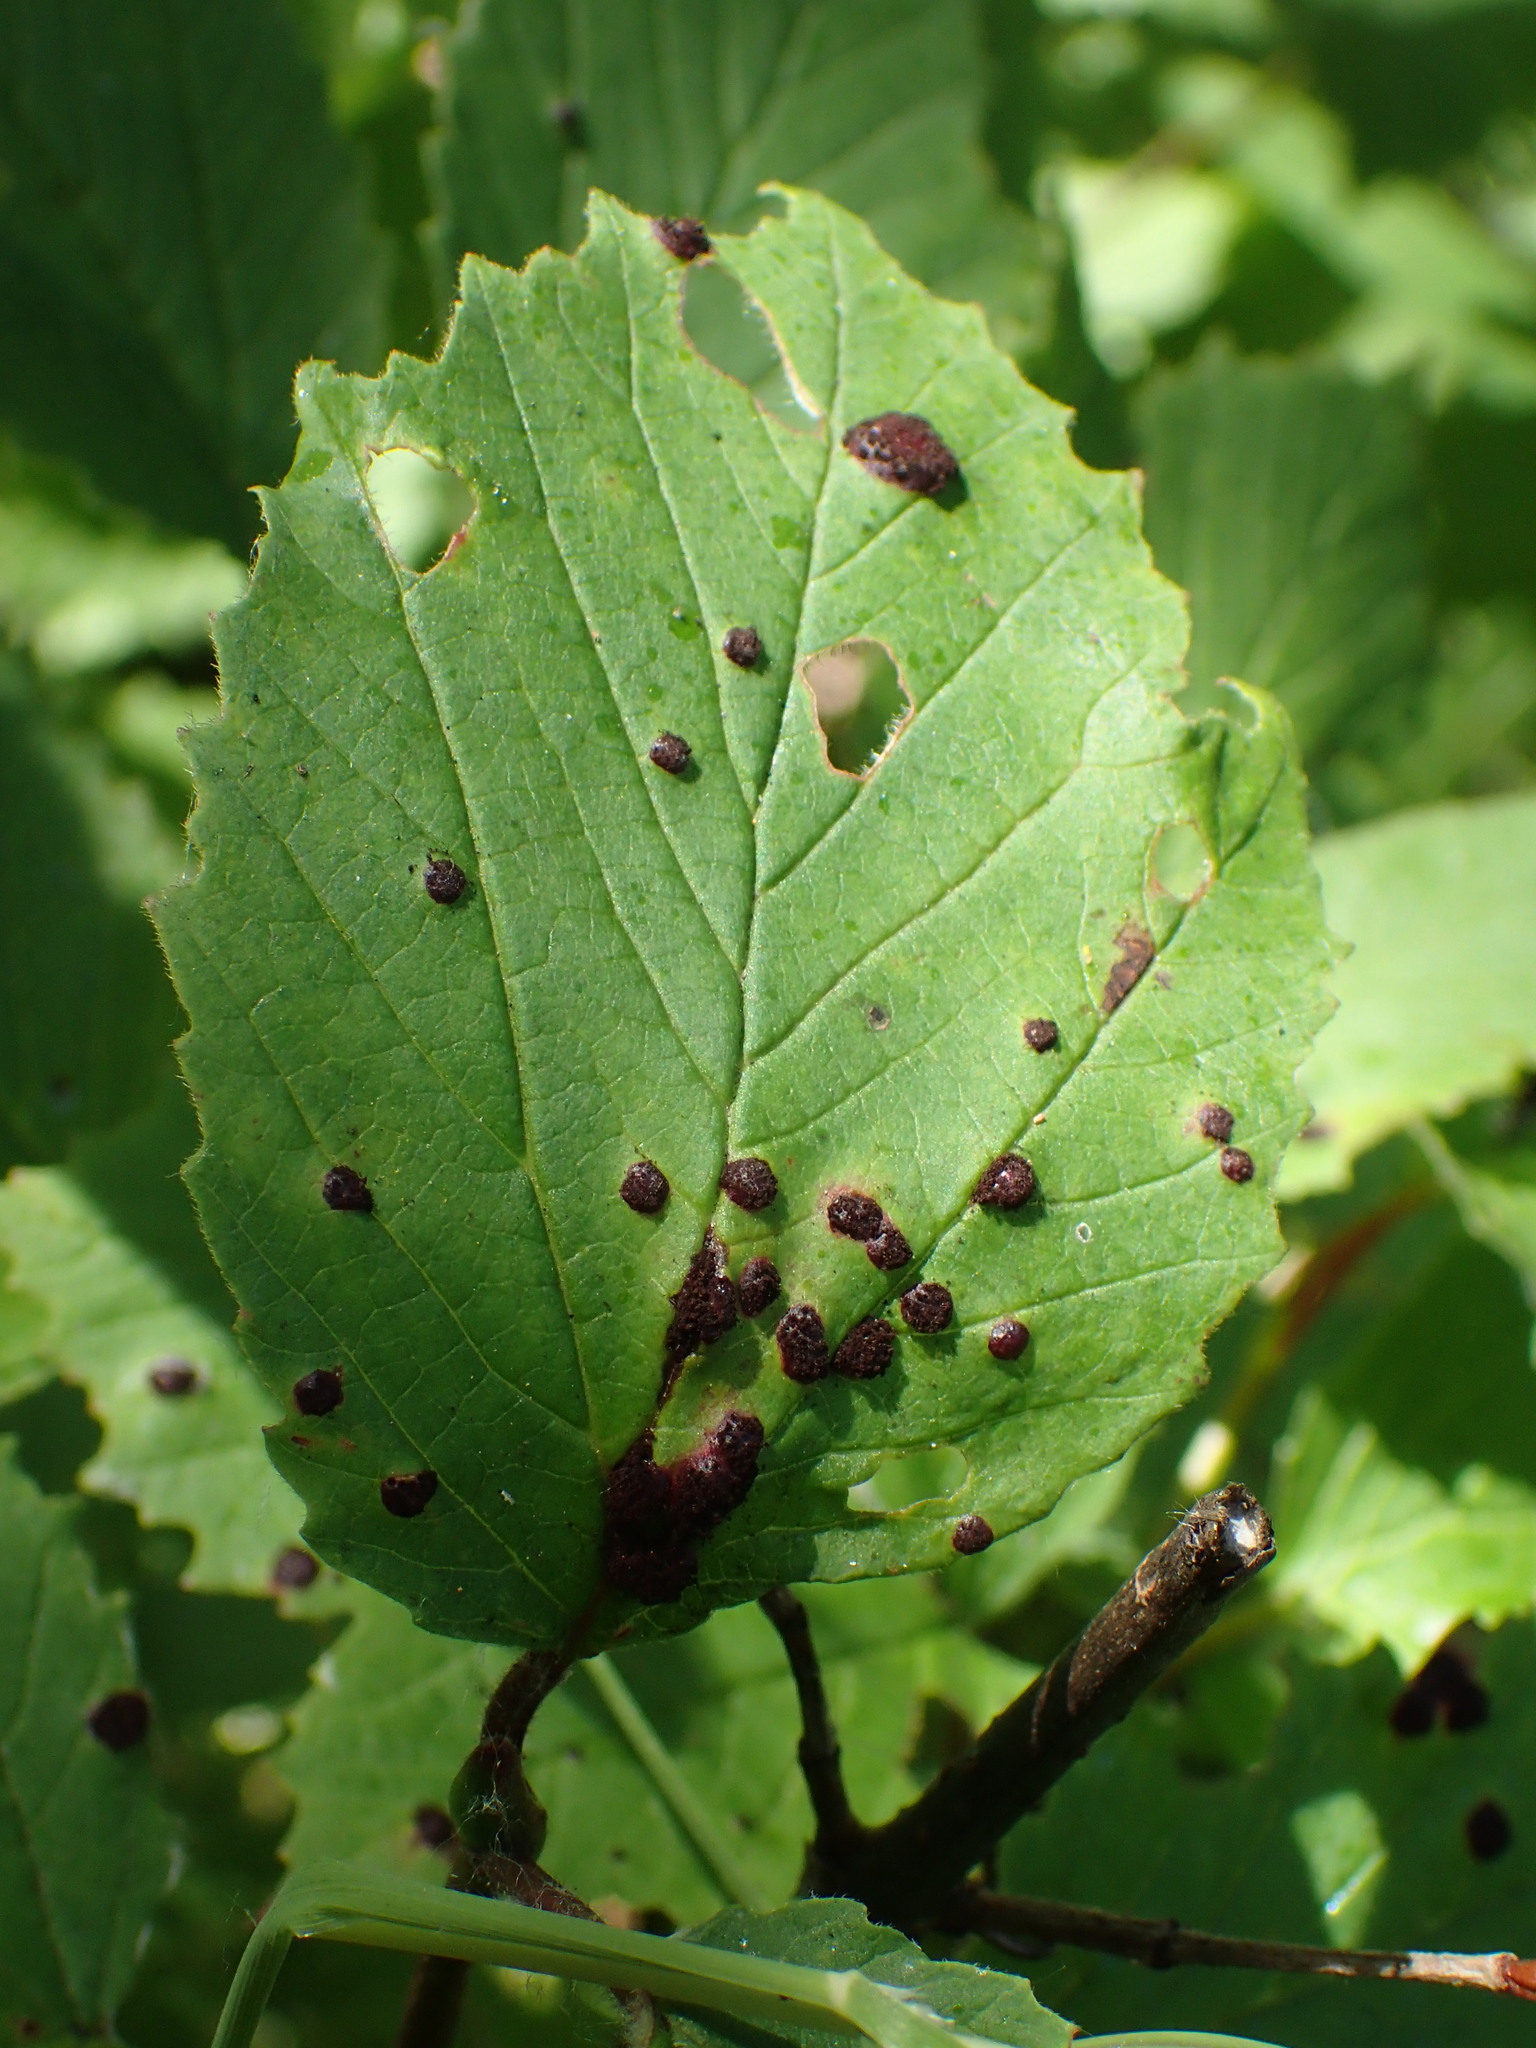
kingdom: Fungi
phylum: Basidiomycota
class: Pucciniomycetes
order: Pucciniales
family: Pucciniaceae
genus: Puccinia
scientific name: Puccinia linkii
